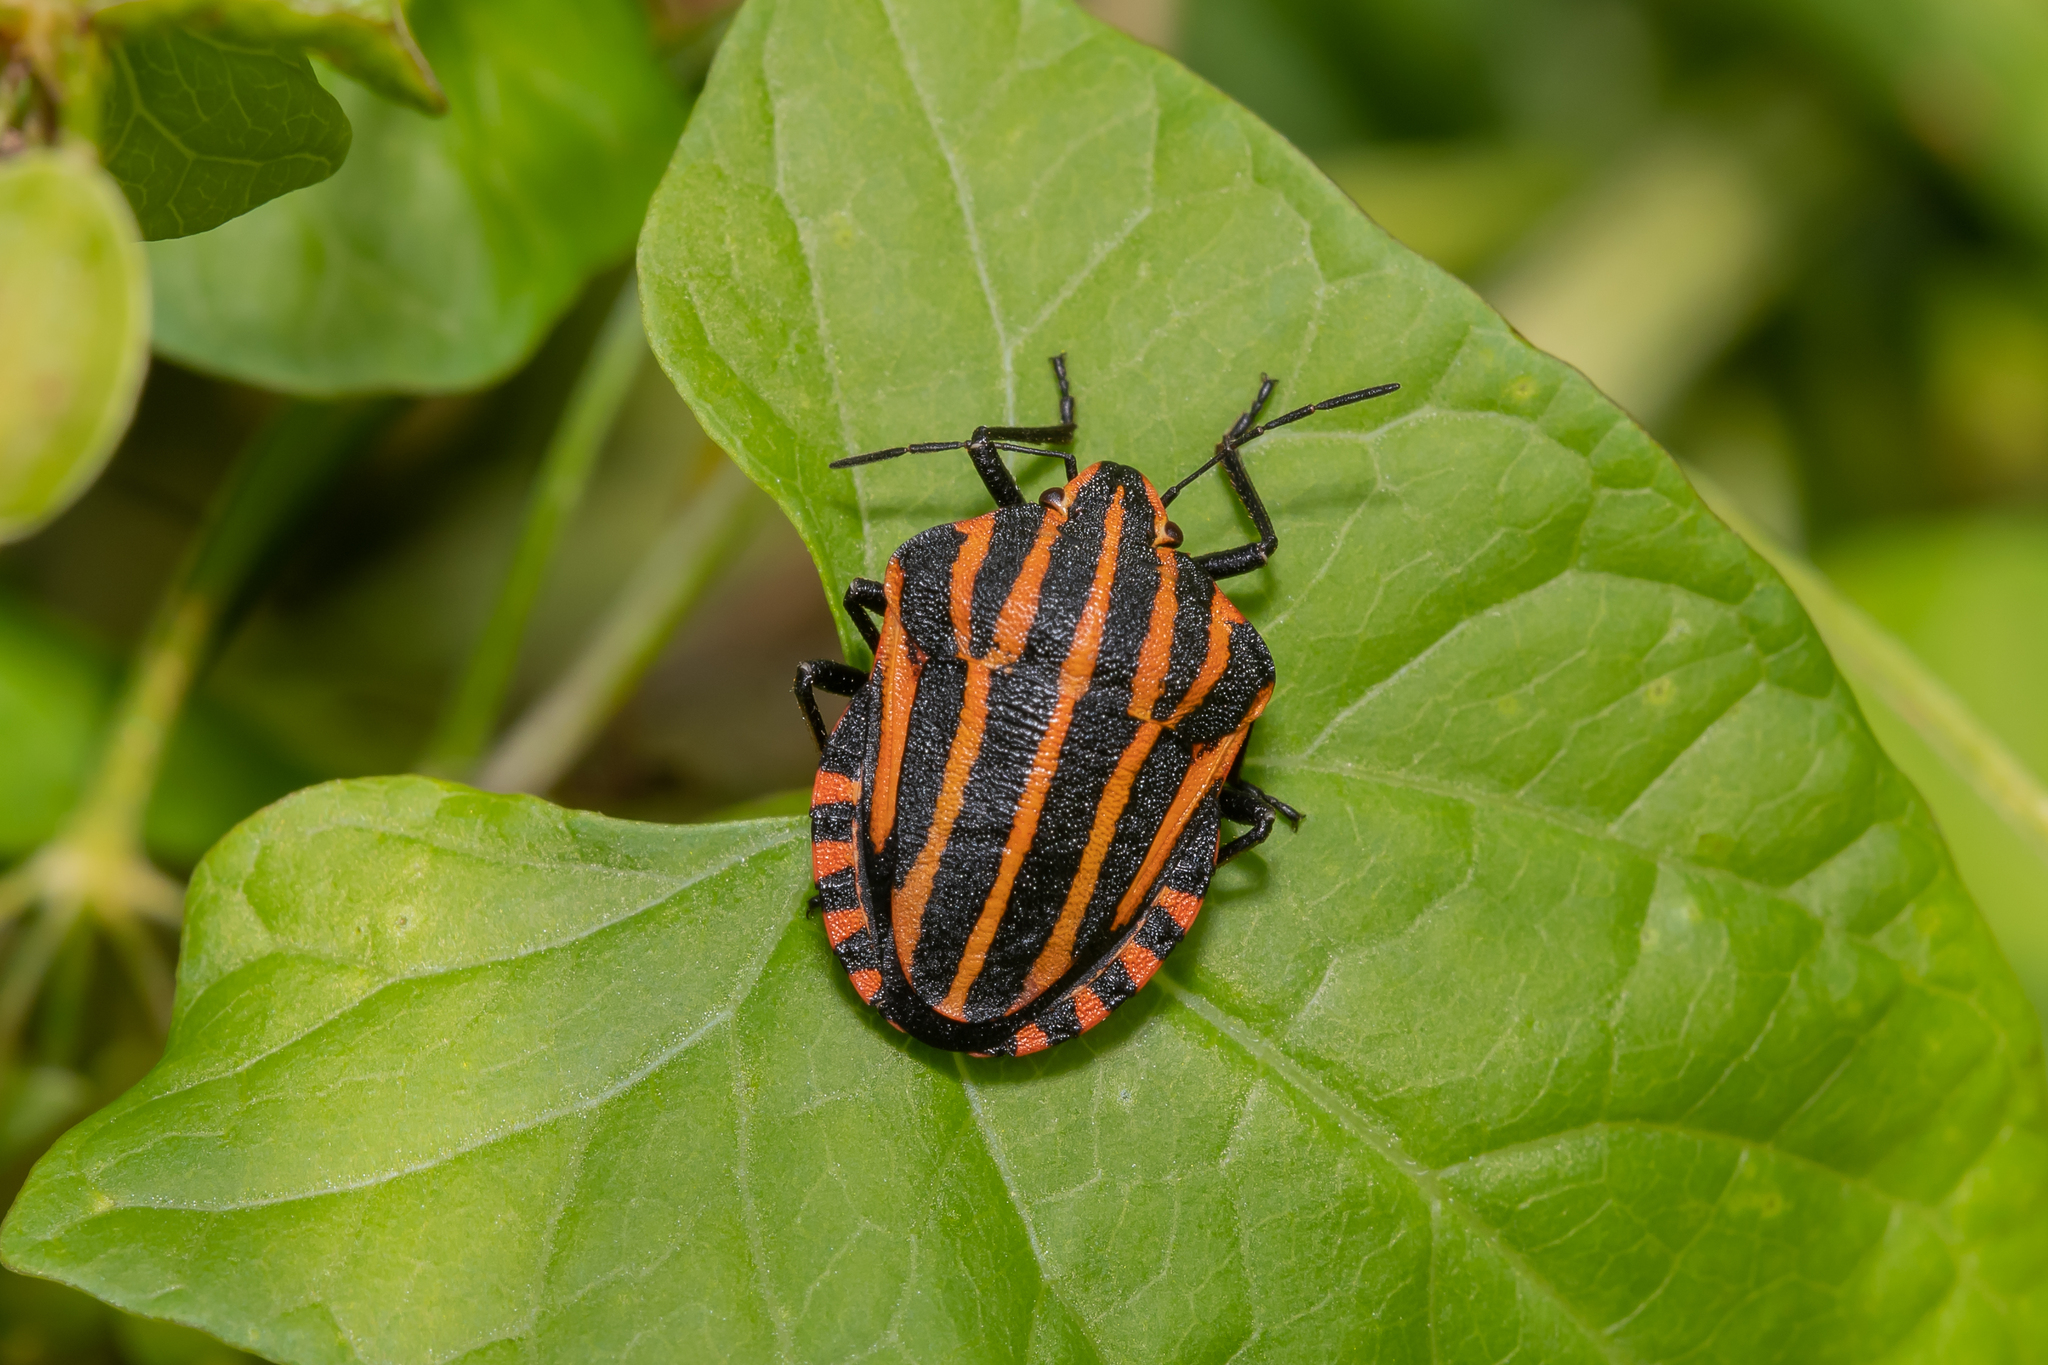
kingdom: Animalia
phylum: Arthropoda
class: Insecta
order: Hemiptera
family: Pentatomidae
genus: Graphosoma
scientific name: Graphosoma italicum
